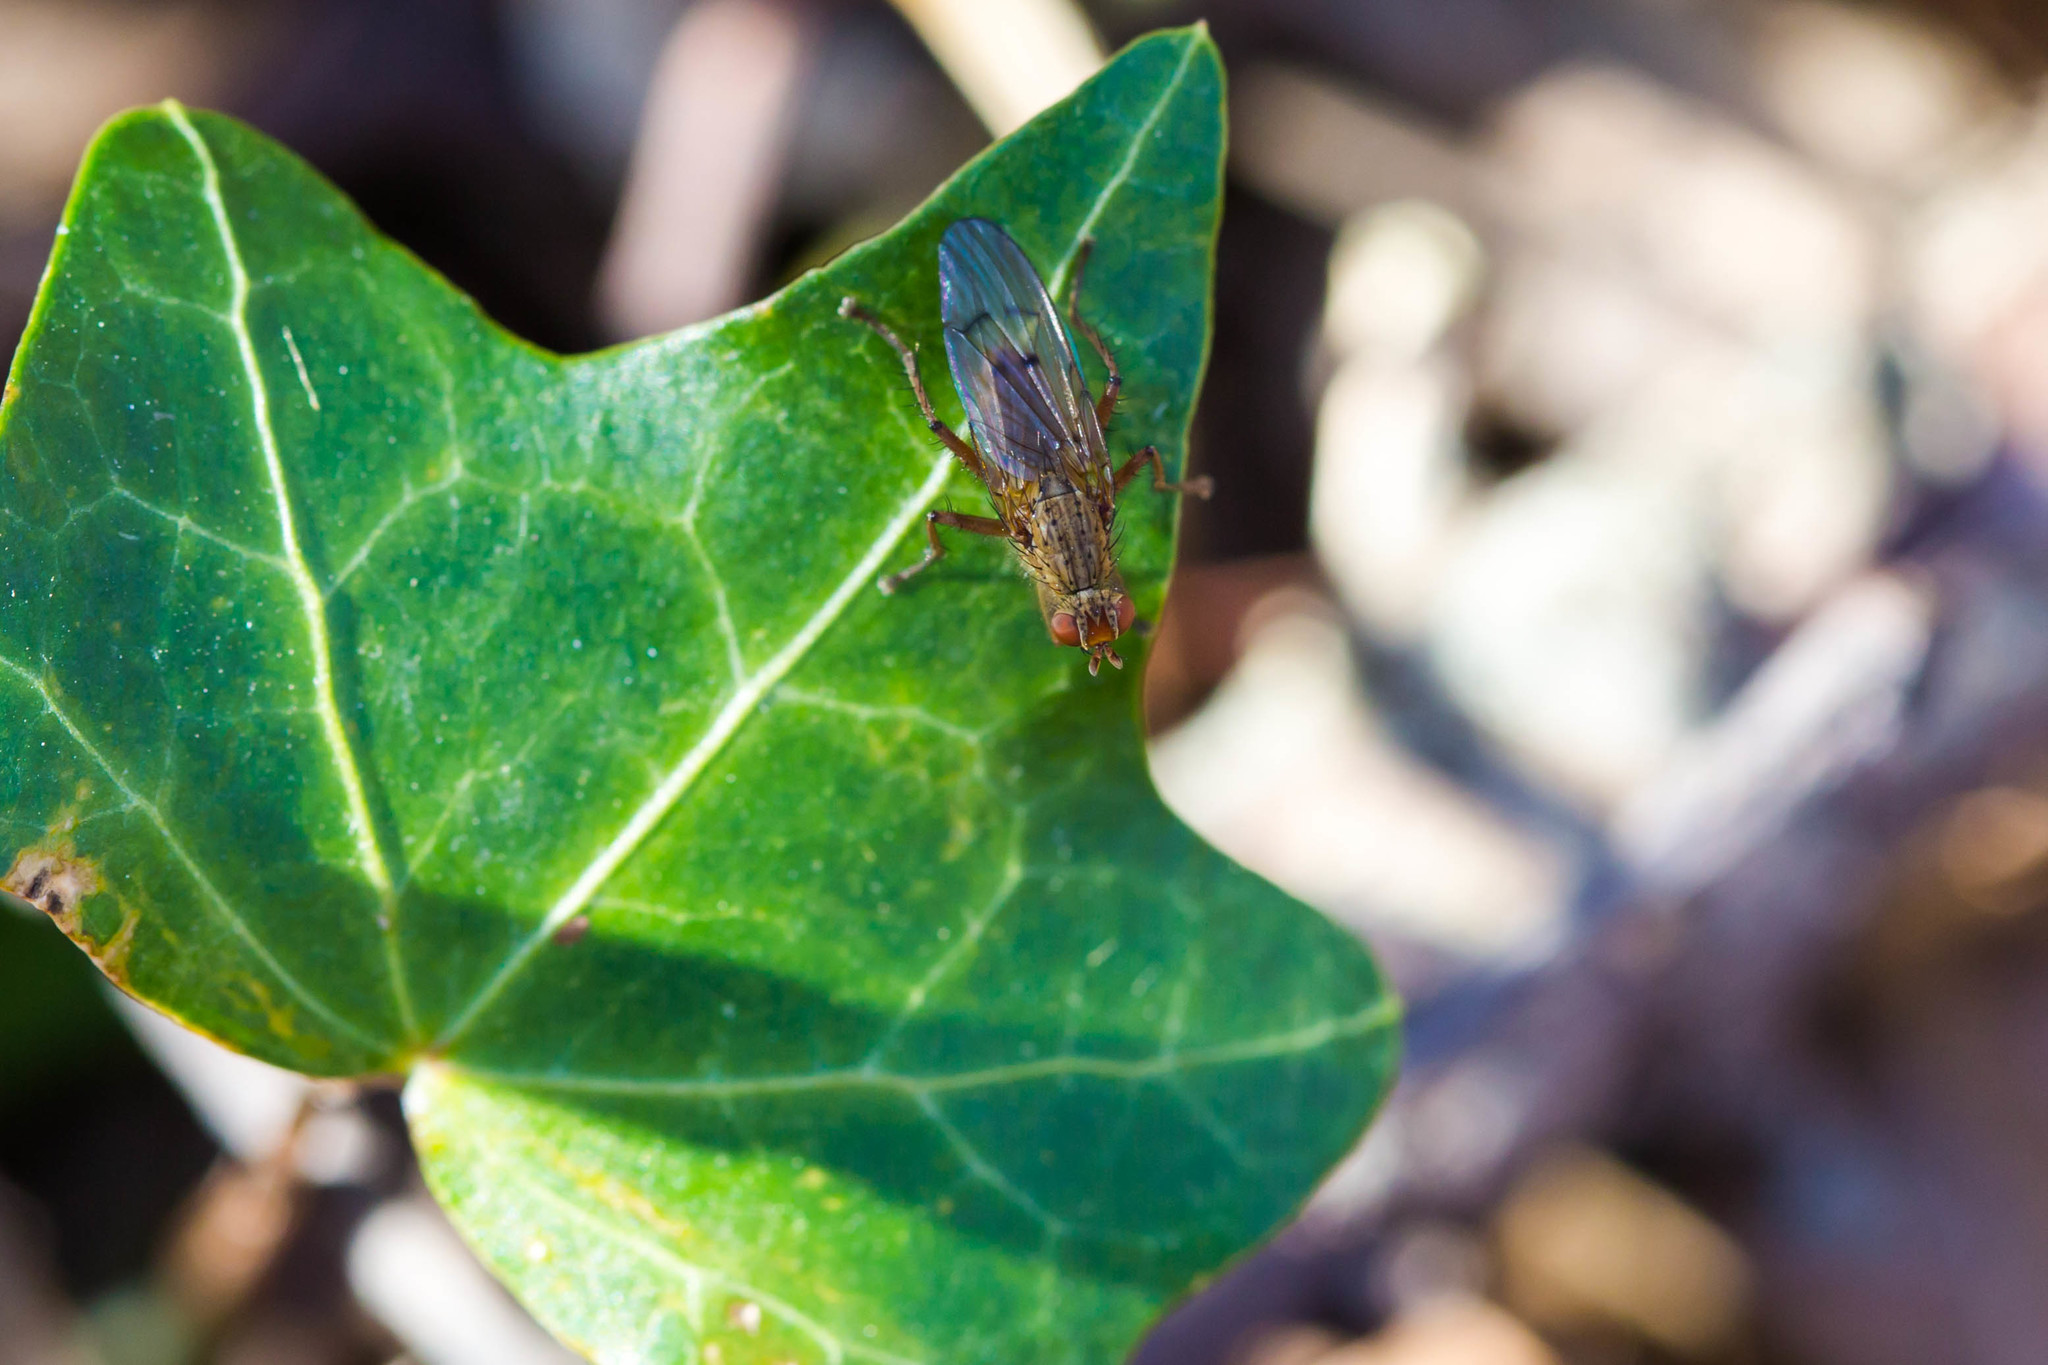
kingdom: Animalia
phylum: Arthropoda
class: Insecta
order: Diptera
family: Scathophagidae
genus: Scathophaga
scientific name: Scathophaga furcata
